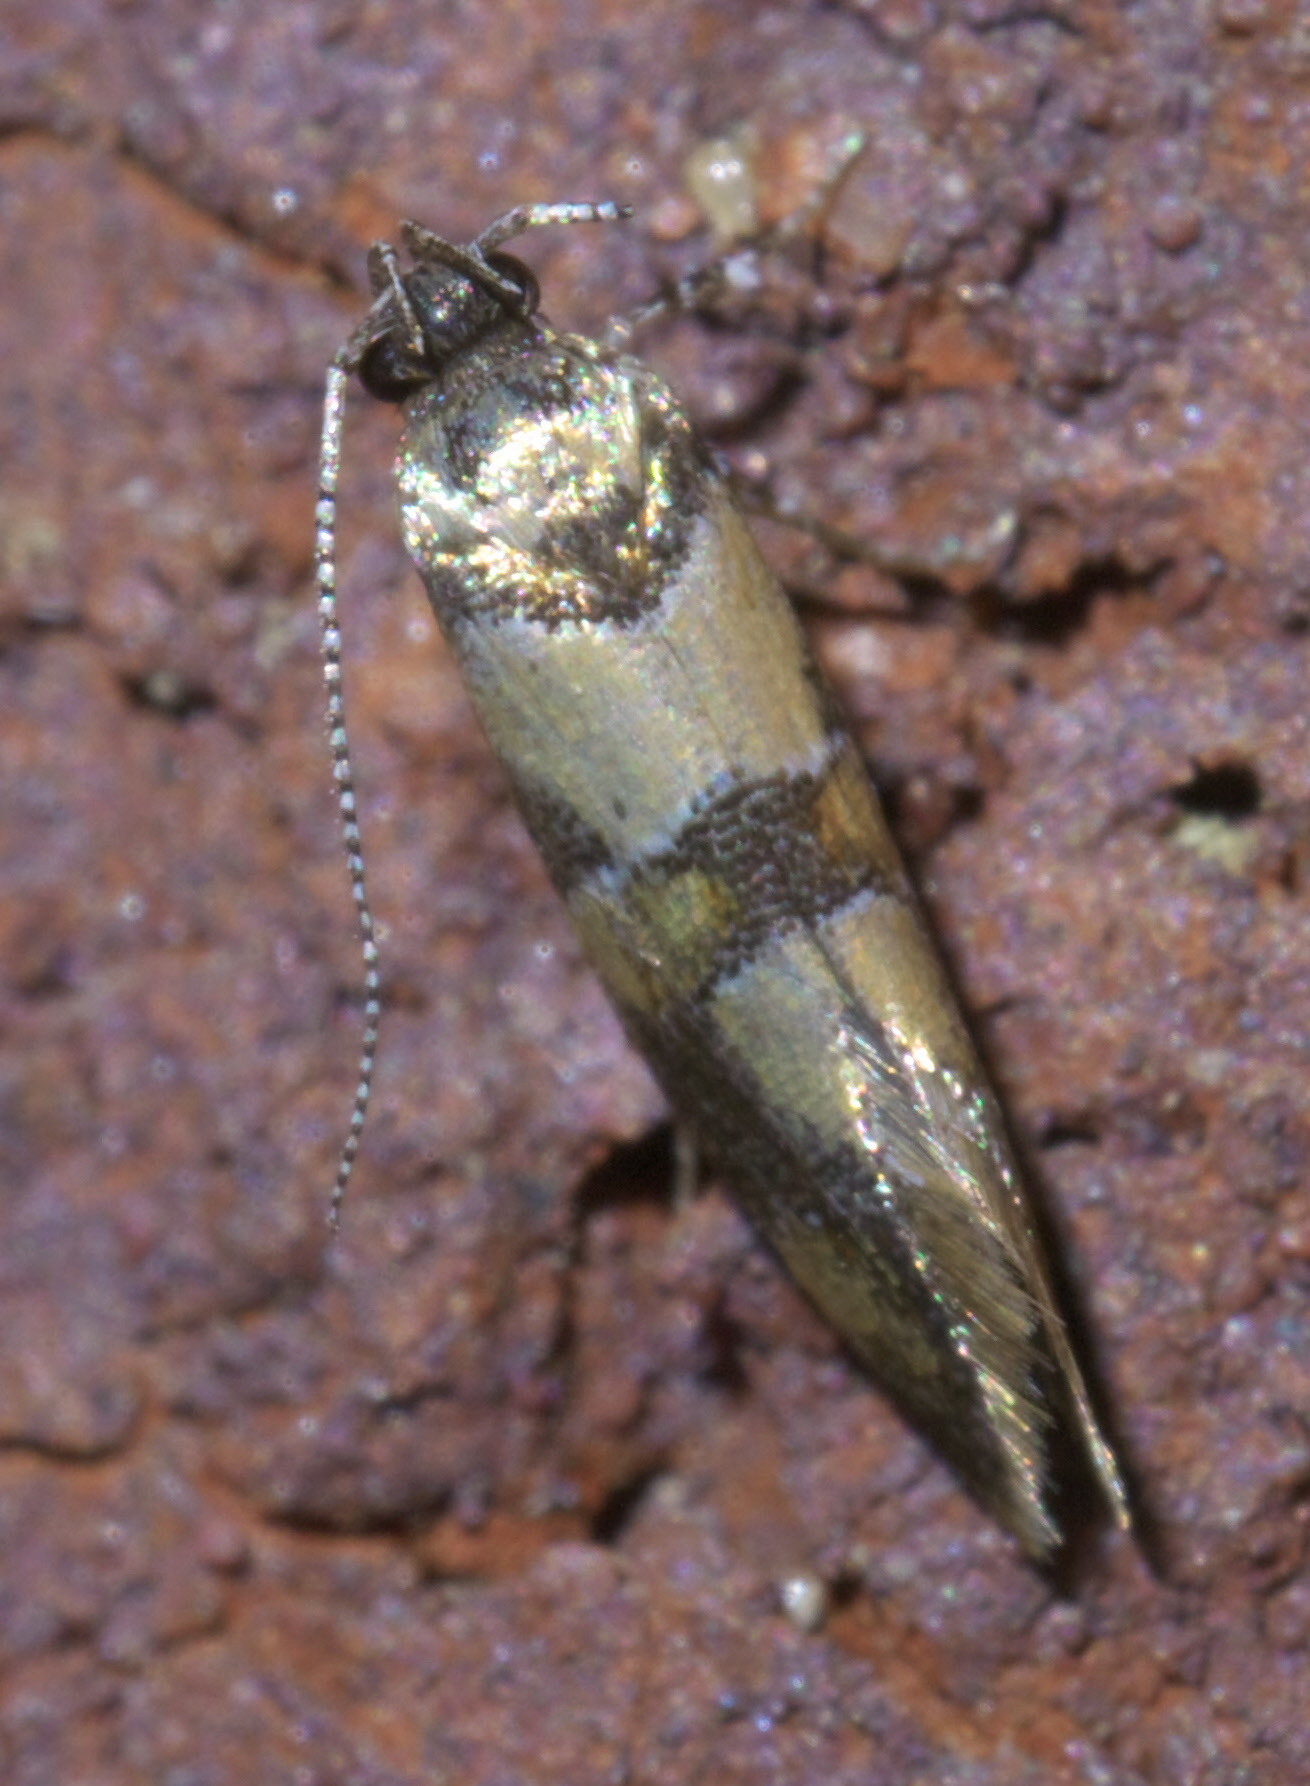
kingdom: Animalia
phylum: Arthropoda
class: Insecta
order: Lepidoptera
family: Oecophoridae
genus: Decantha
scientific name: Decantha borkhausenii
